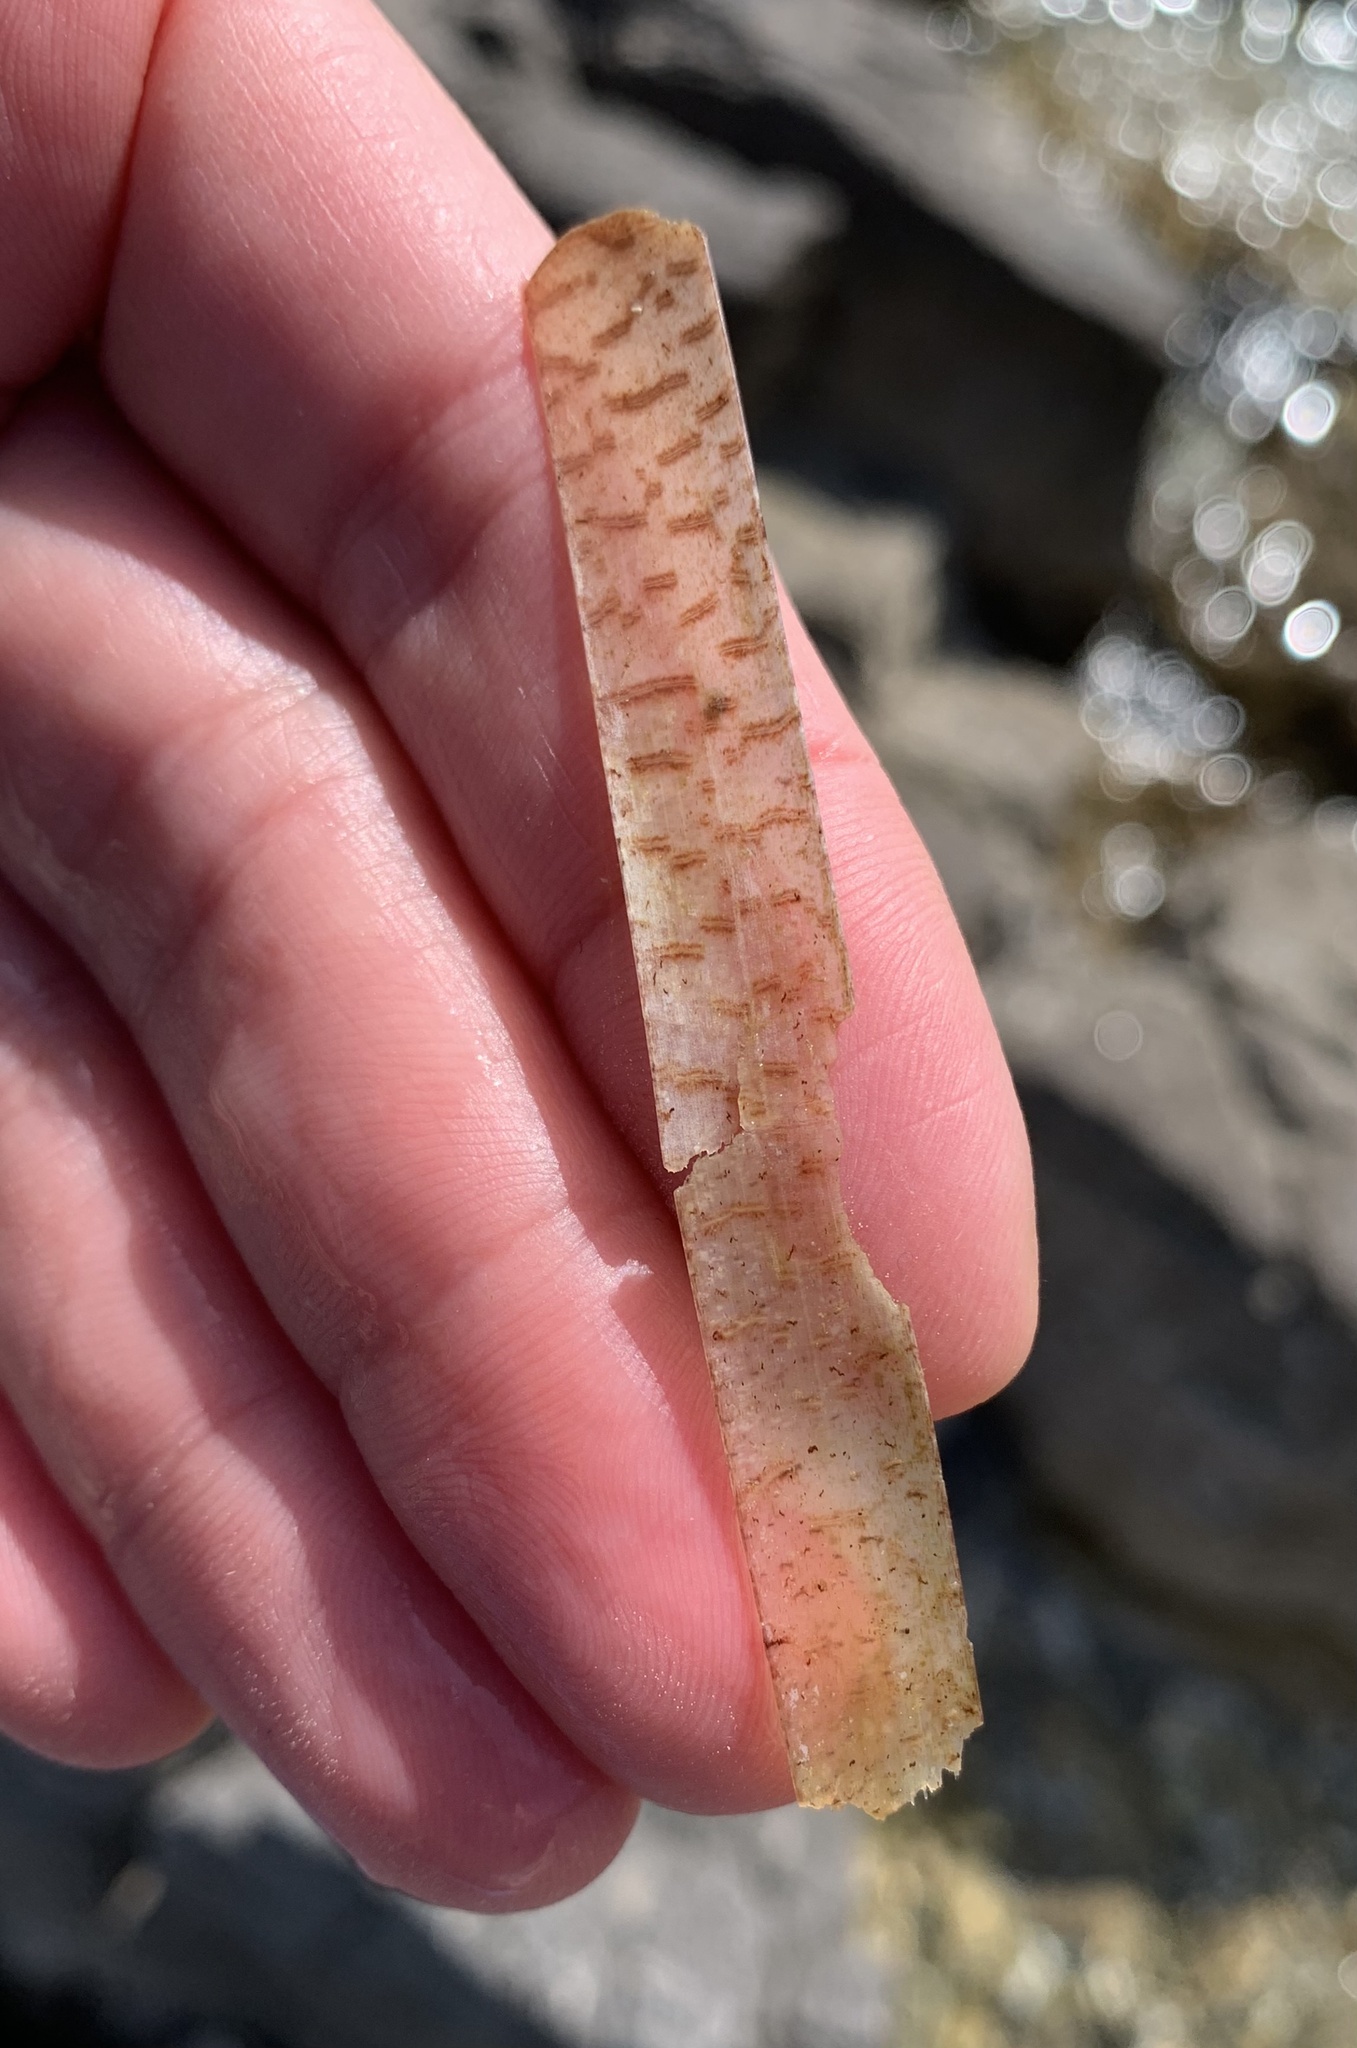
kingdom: Plantae
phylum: Tracheophyta
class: Liliopsida
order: Alismatales
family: Posidoniaceae
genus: Posidonia
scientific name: Posidonia oceanica
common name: Mediterranean tapeweed
